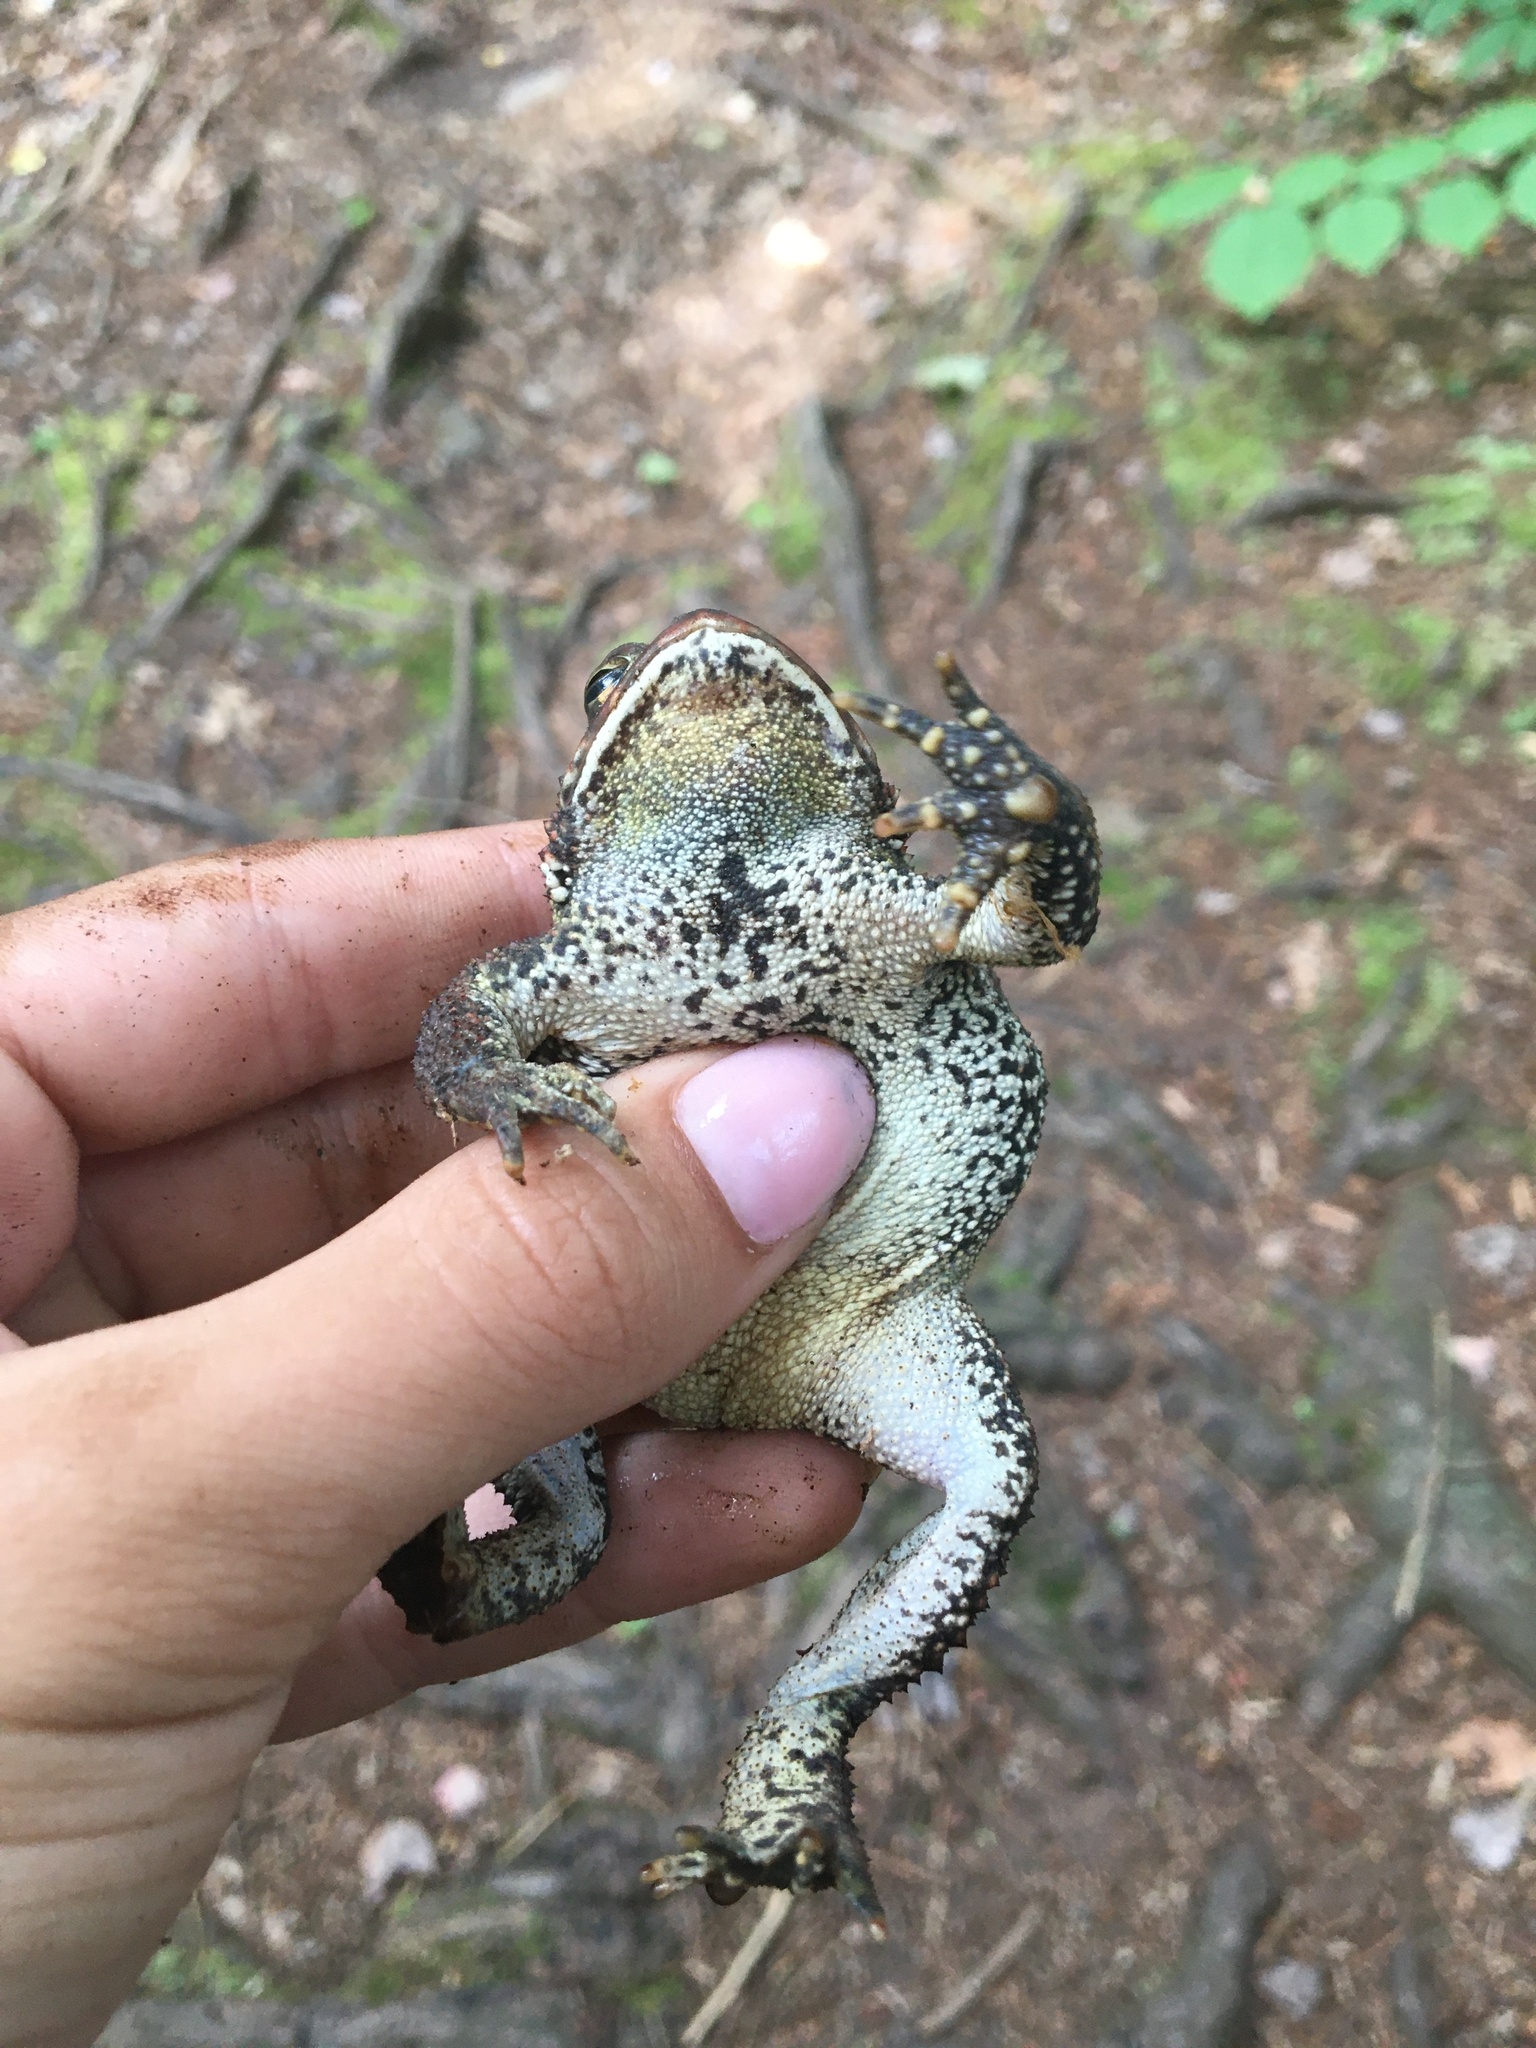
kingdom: Animalia
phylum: Chordata
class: Amphibia
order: Anura
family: Bufonidae
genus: Anaxyrus
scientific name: Anaxyrus americanus
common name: American toad
